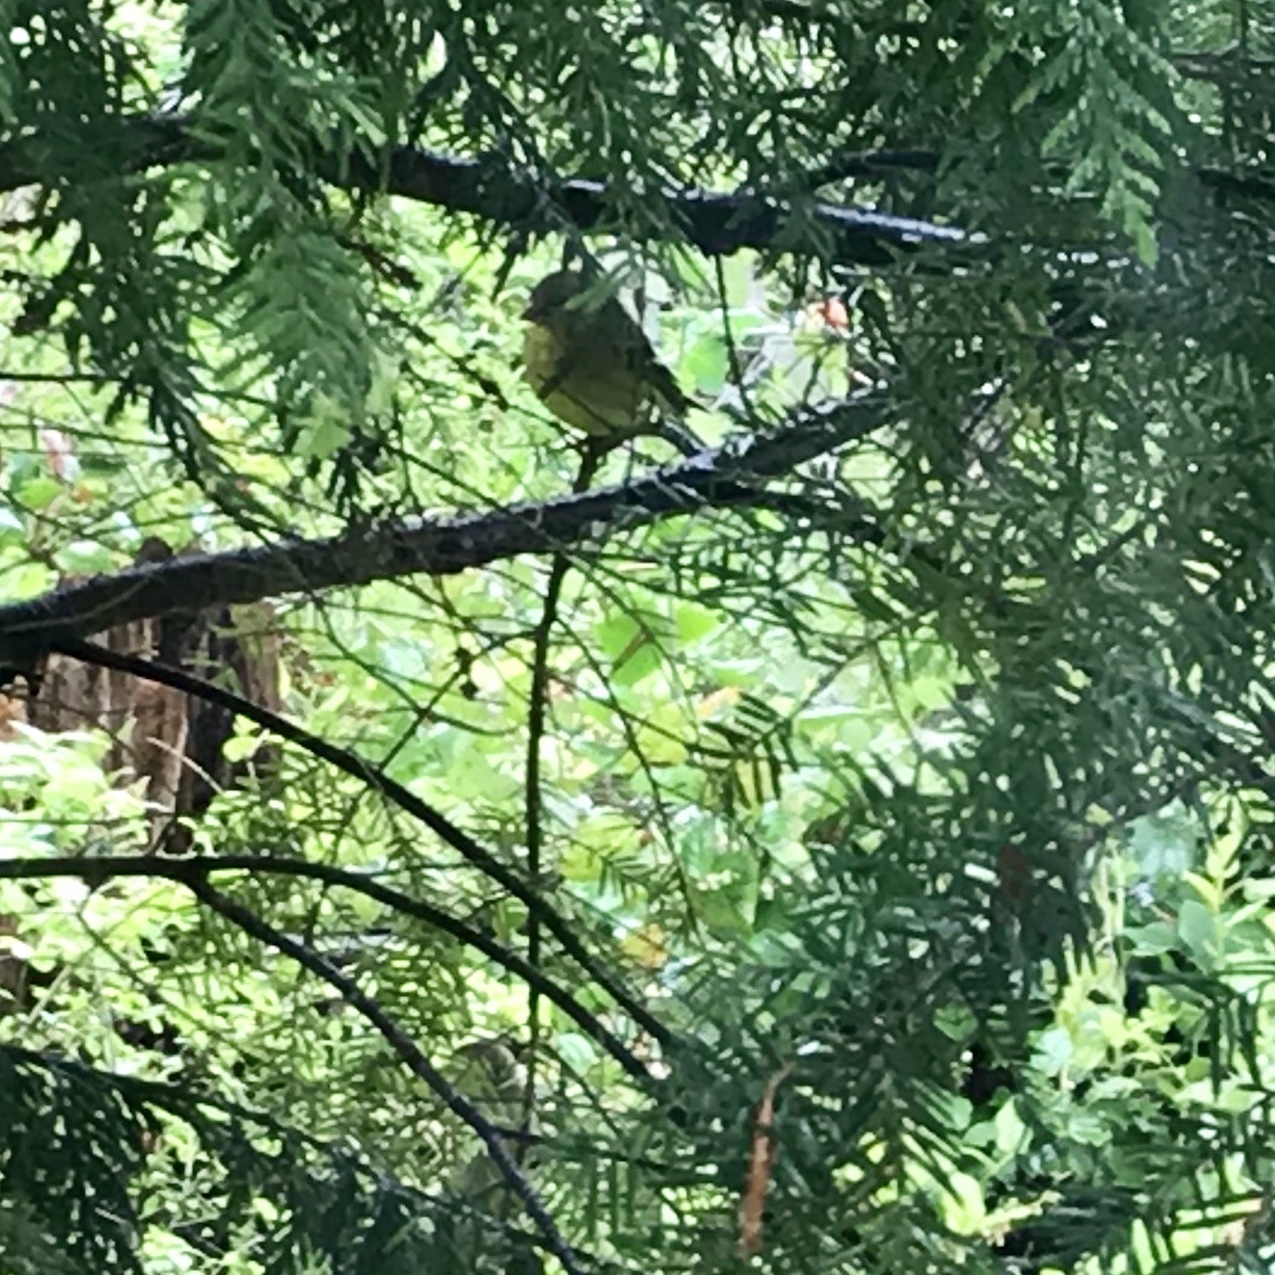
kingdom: Animalia
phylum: Chordata
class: Aves
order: Passeriformes
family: Fringillidae
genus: Spinus
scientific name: Spinus tristis
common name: American goldfinch
